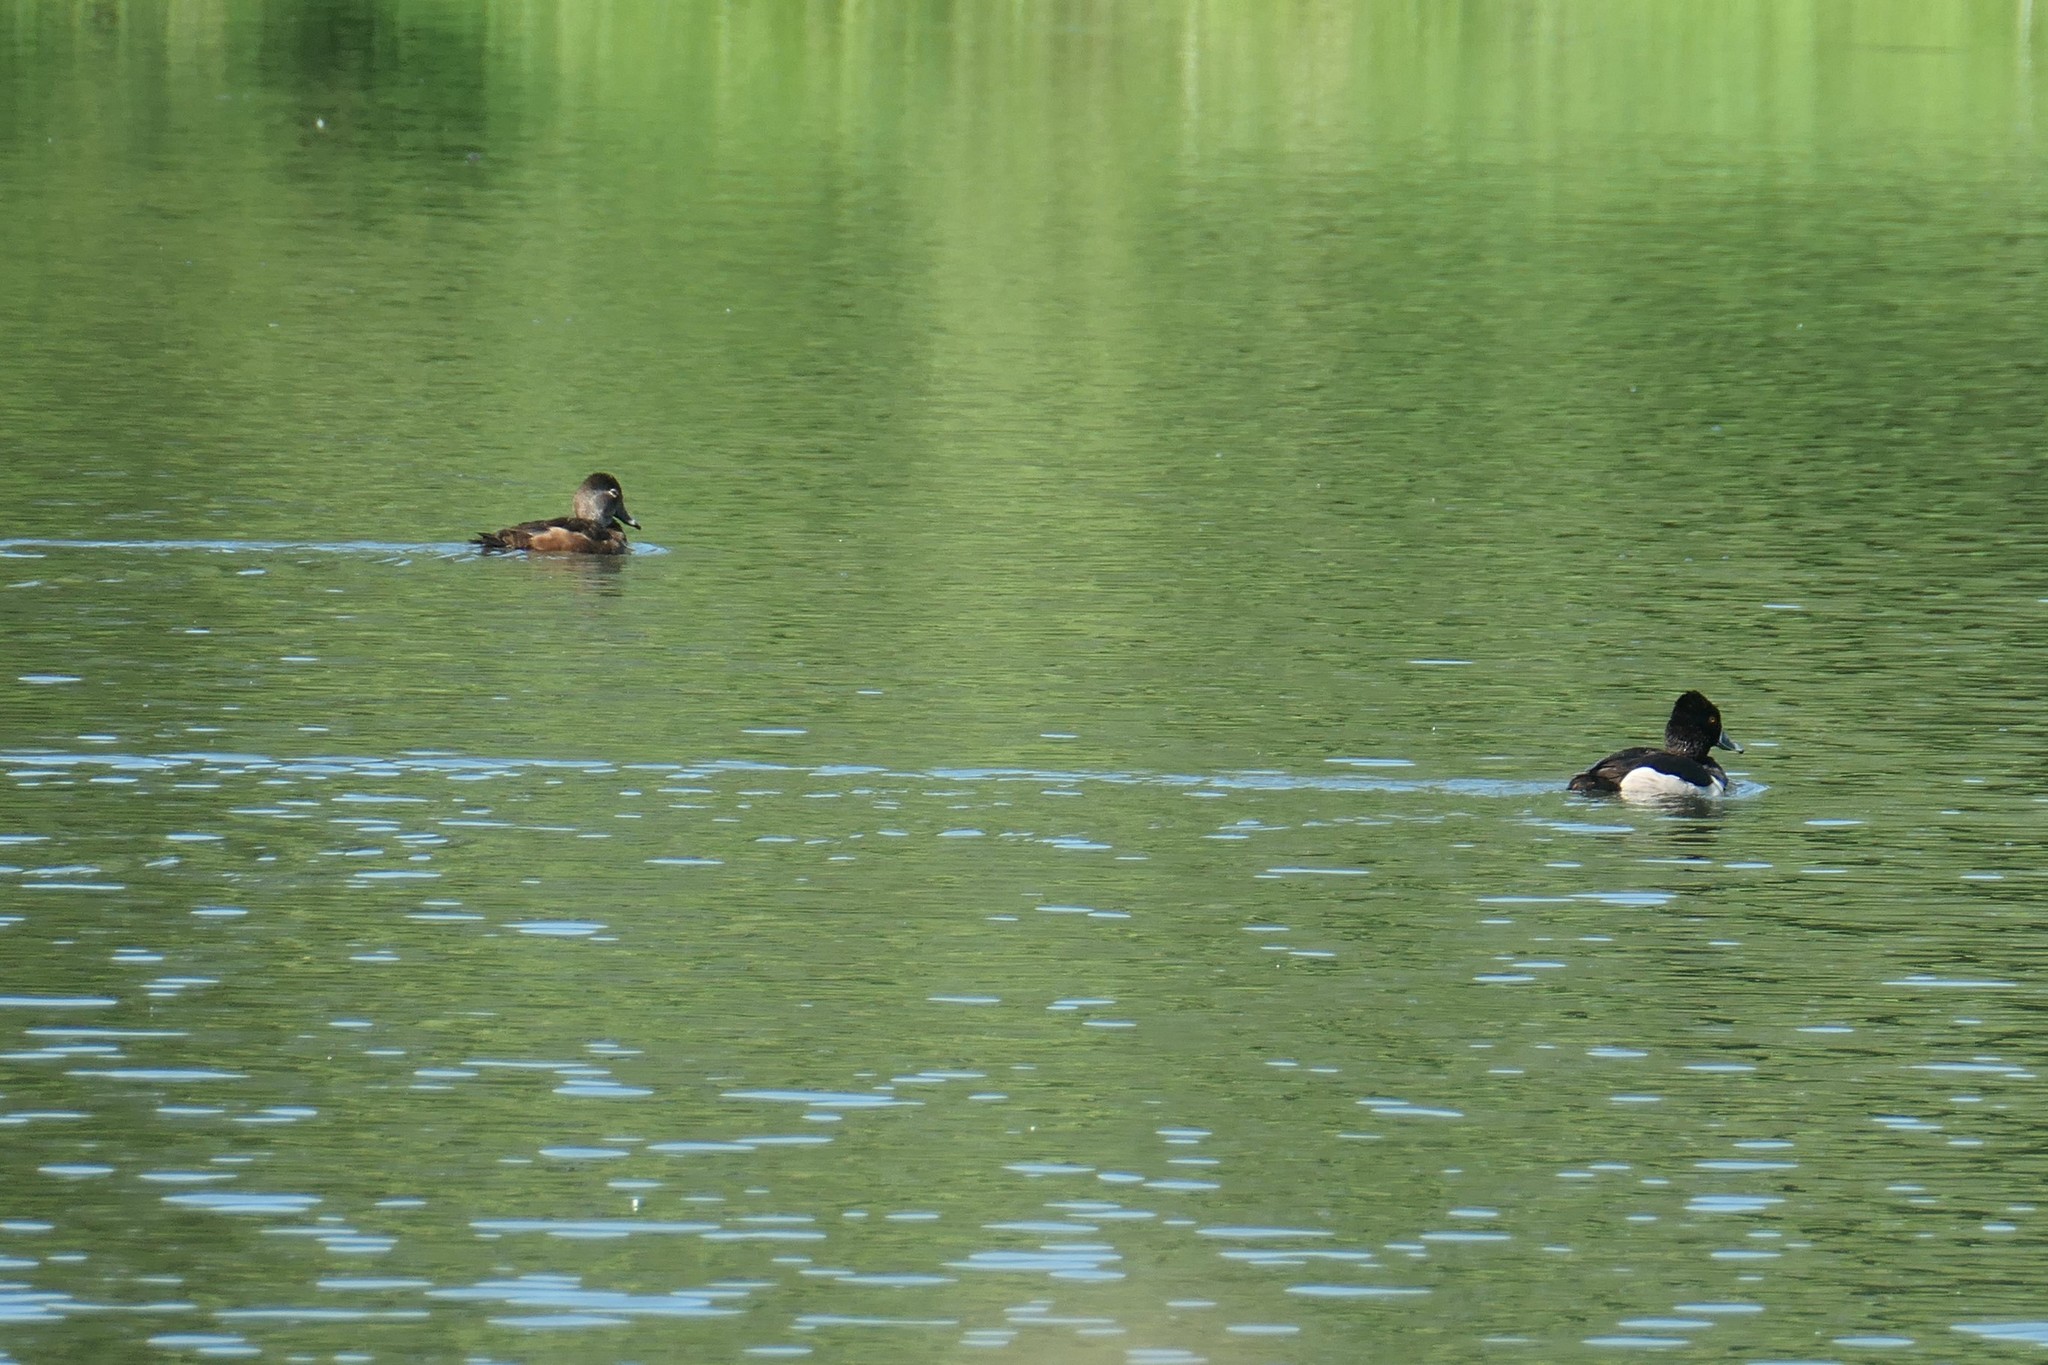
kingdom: Animalia
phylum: Chordata
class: Aves
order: Anseriformes
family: Anatidae
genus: Aythya
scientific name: Aythya collaris
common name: Ring-necked duck
